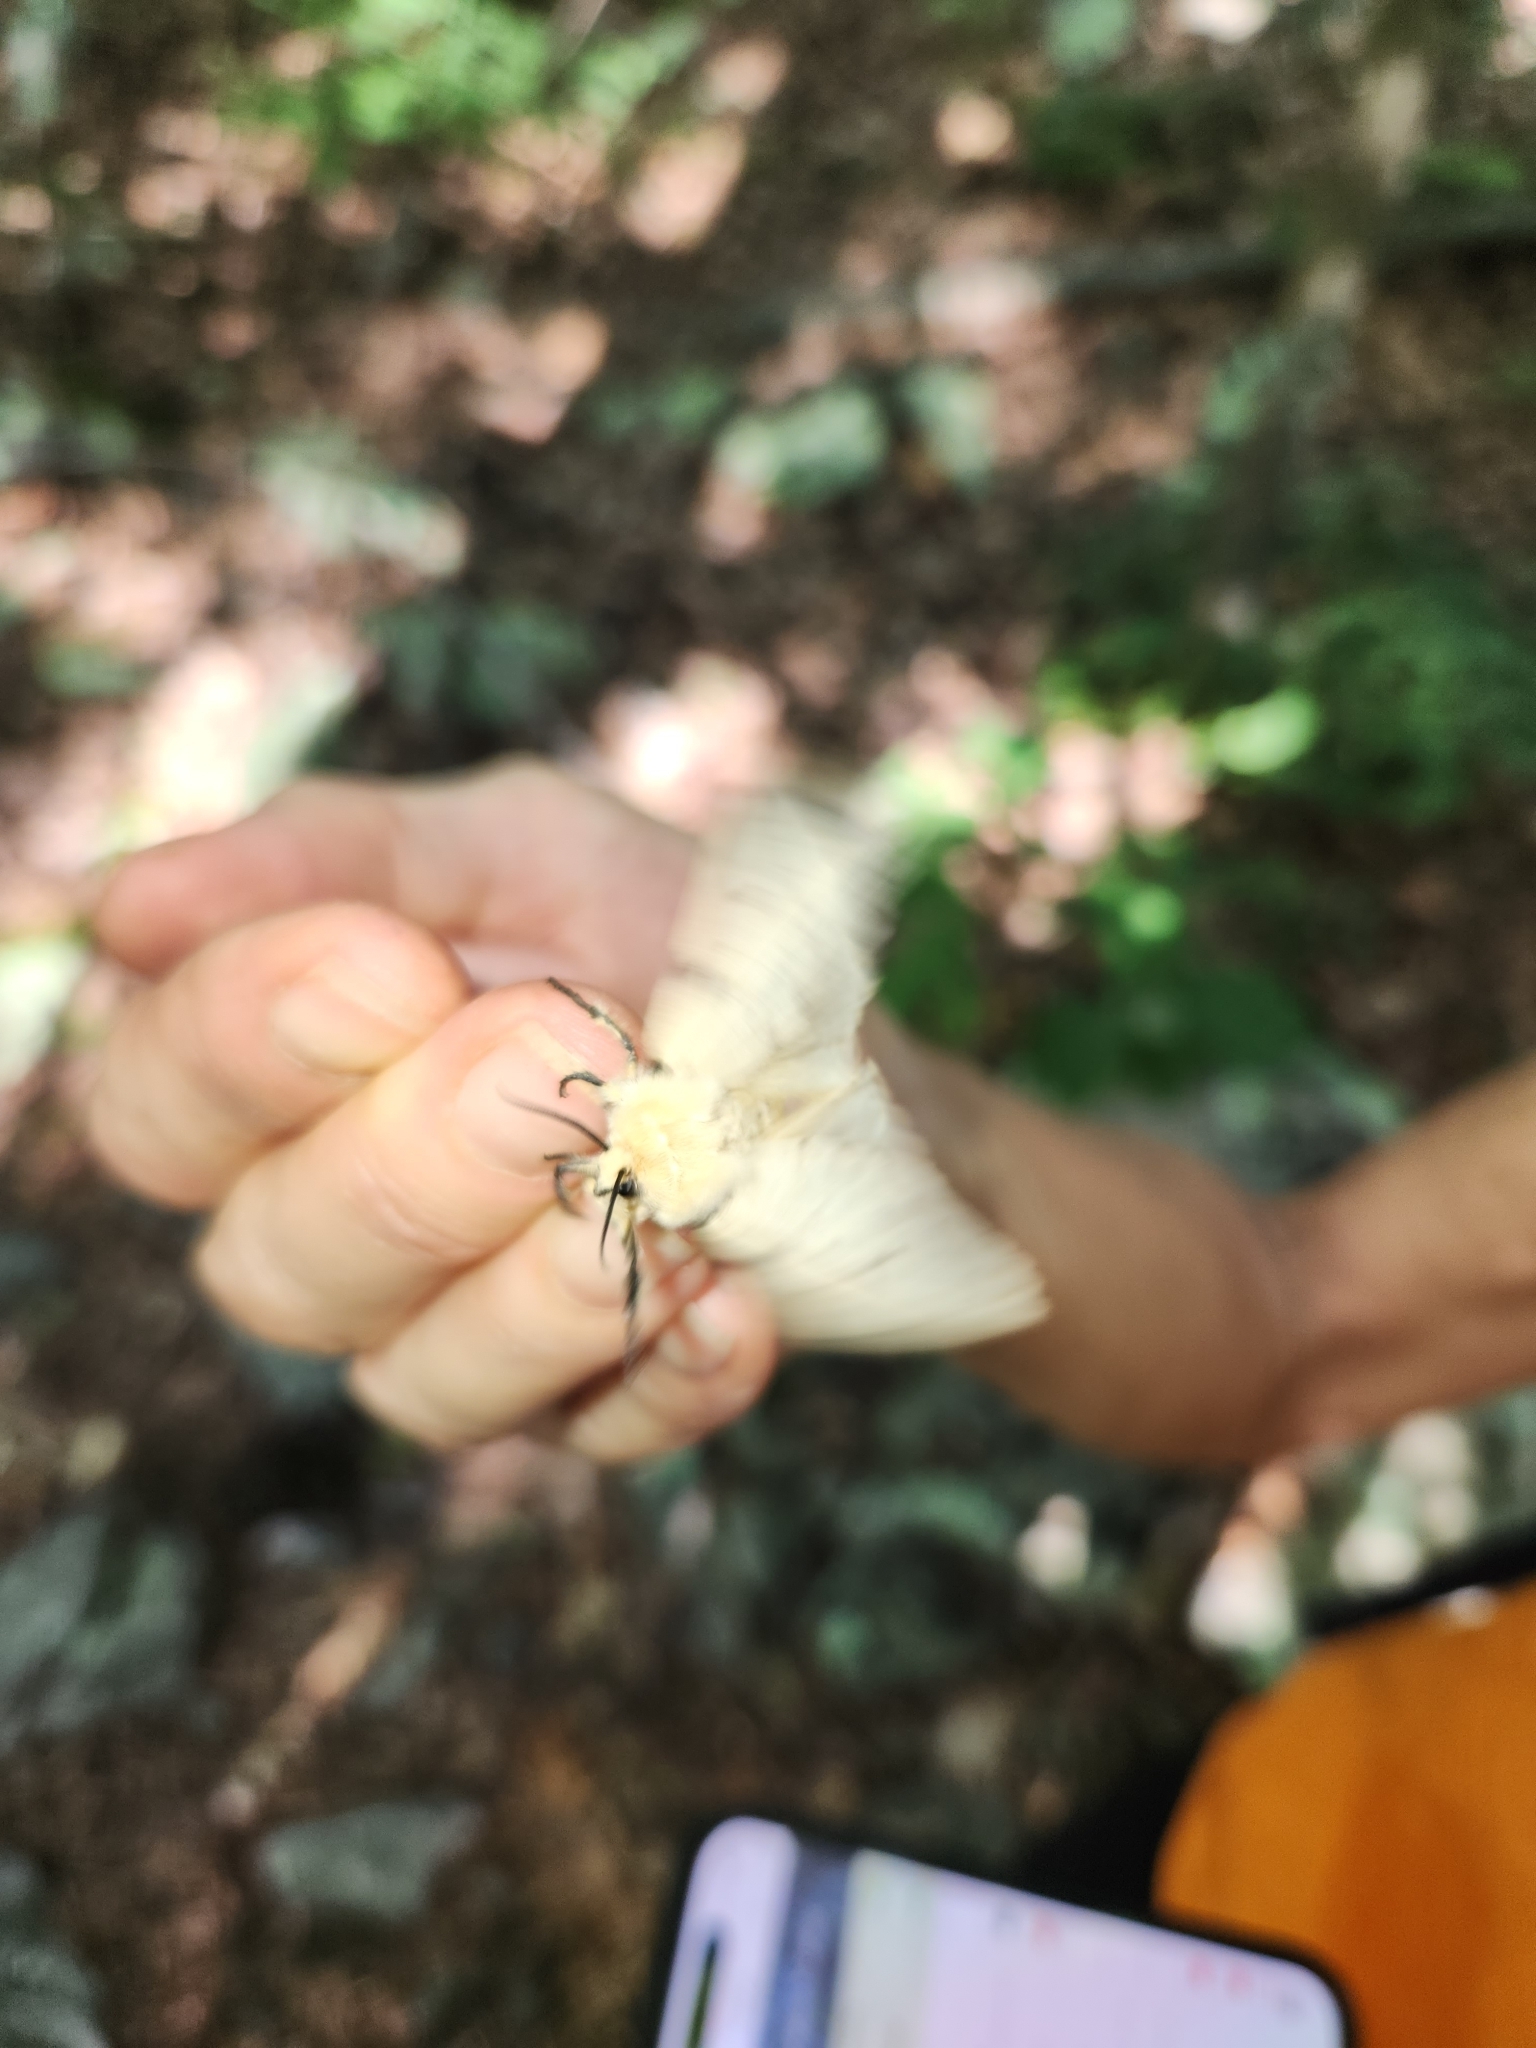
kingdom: Animalia
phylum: Arthropoda
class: Insecta
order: Lepidoptera
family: Erebidae
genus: Lymantria
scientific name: Lymantria dispar
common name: Gypsy moth
